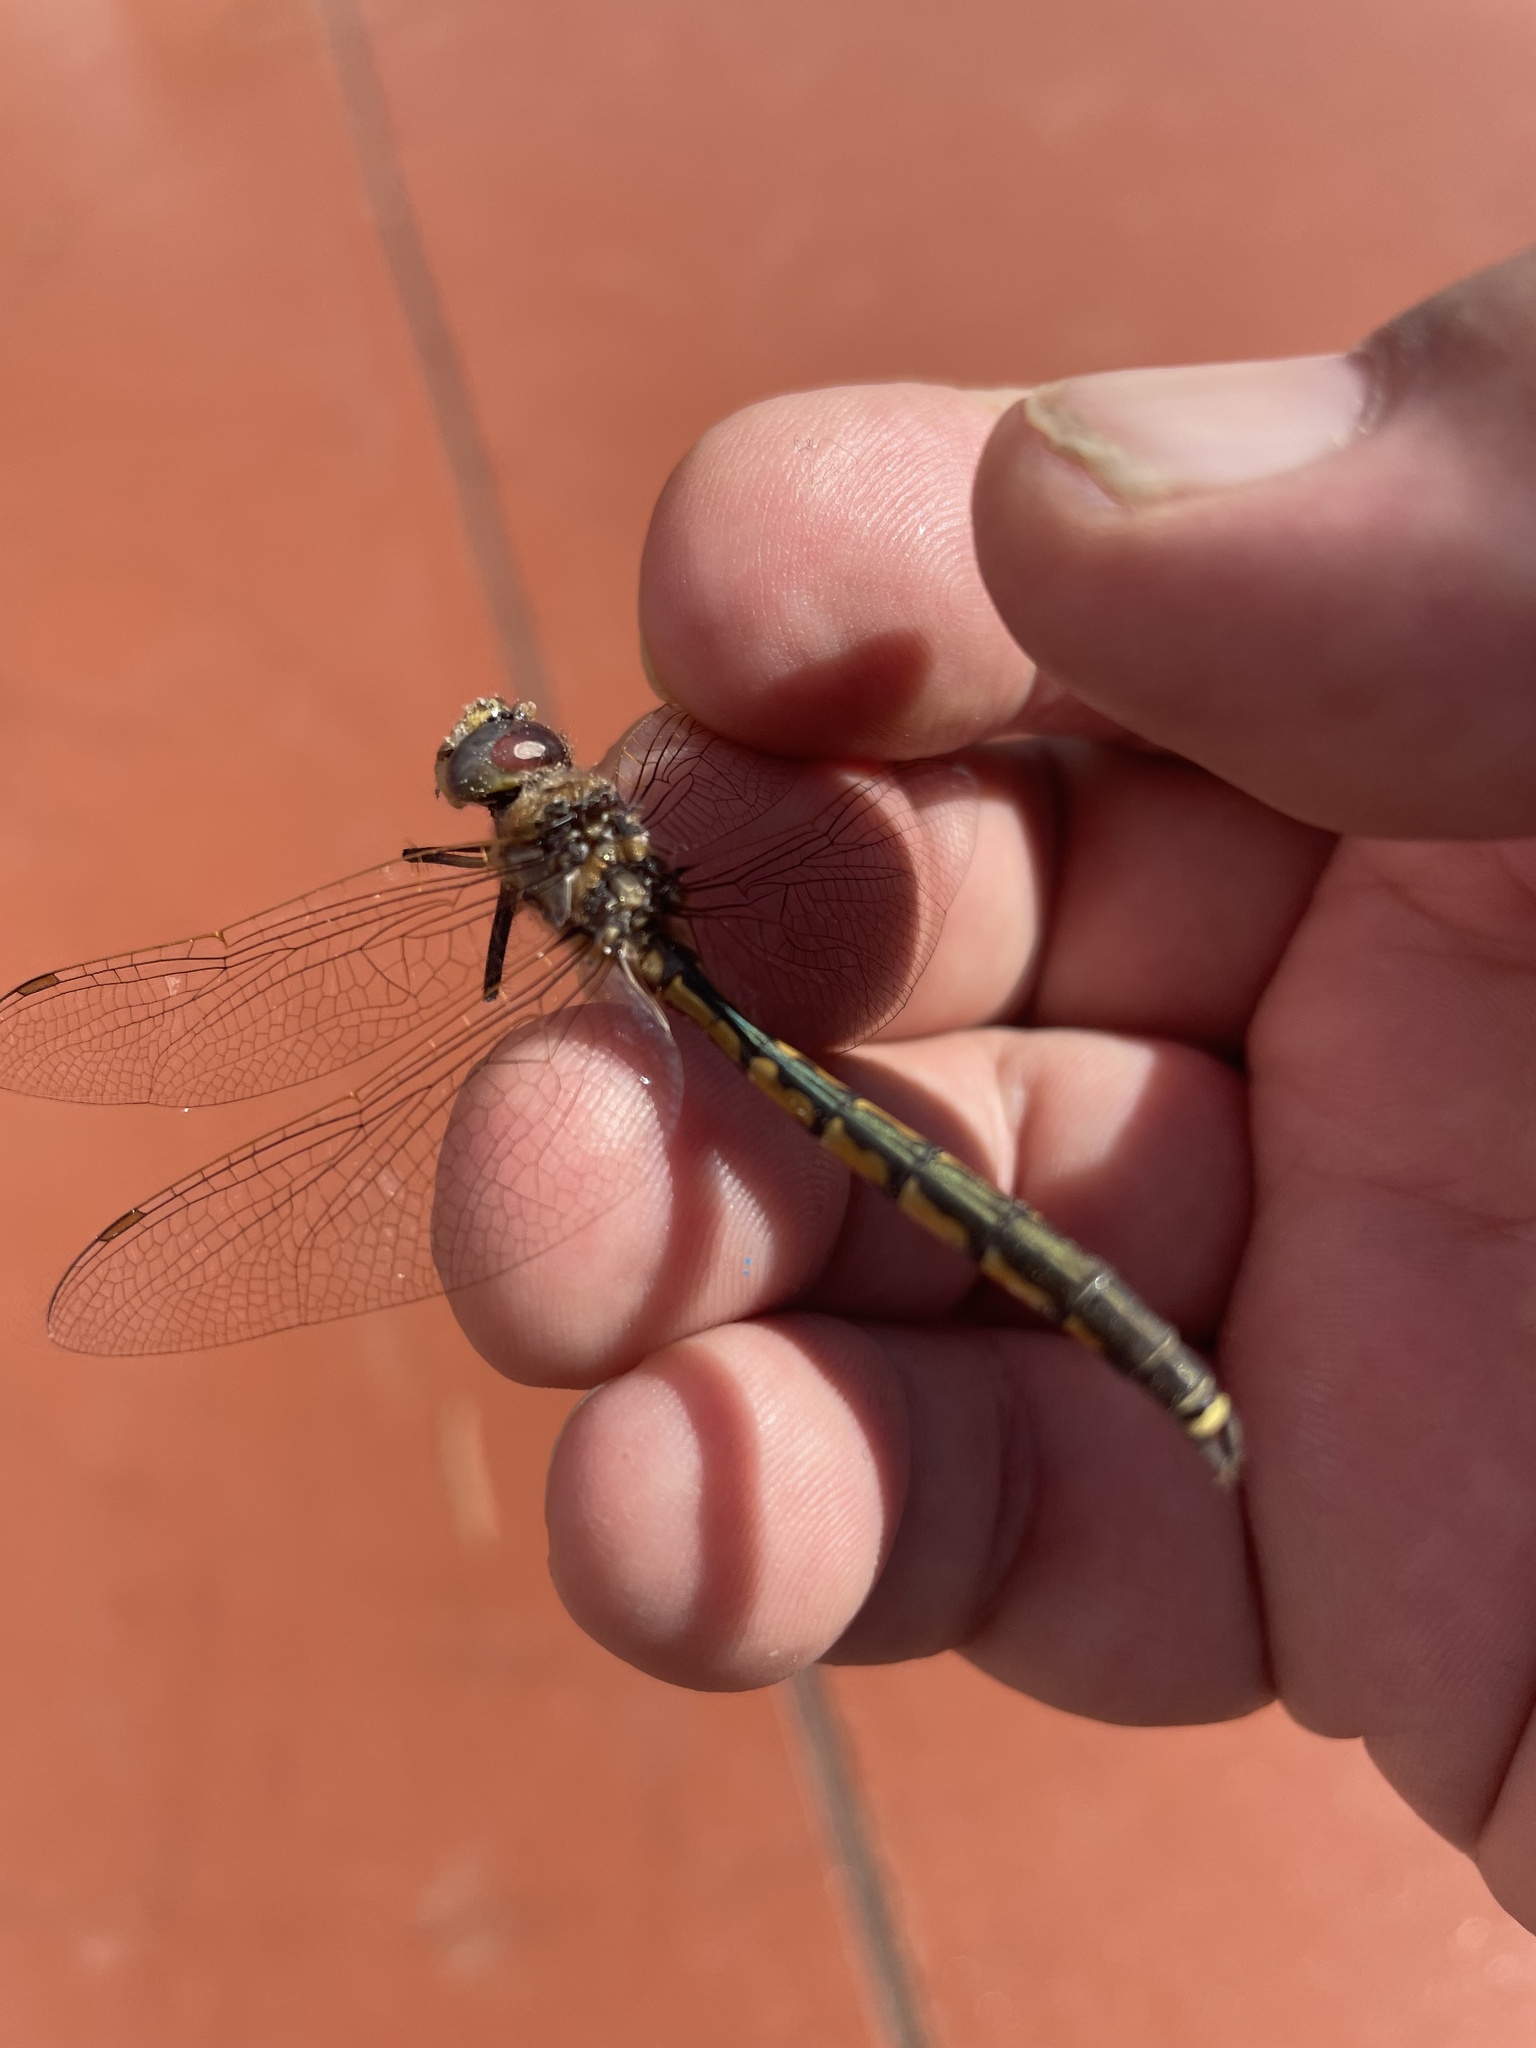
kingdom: Animalia
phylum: Arthropoda
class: Insecta
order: Odonata
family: Corduliidae
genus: Hemicordulia
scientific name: Hemicordulia tau
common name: Tau emerald
